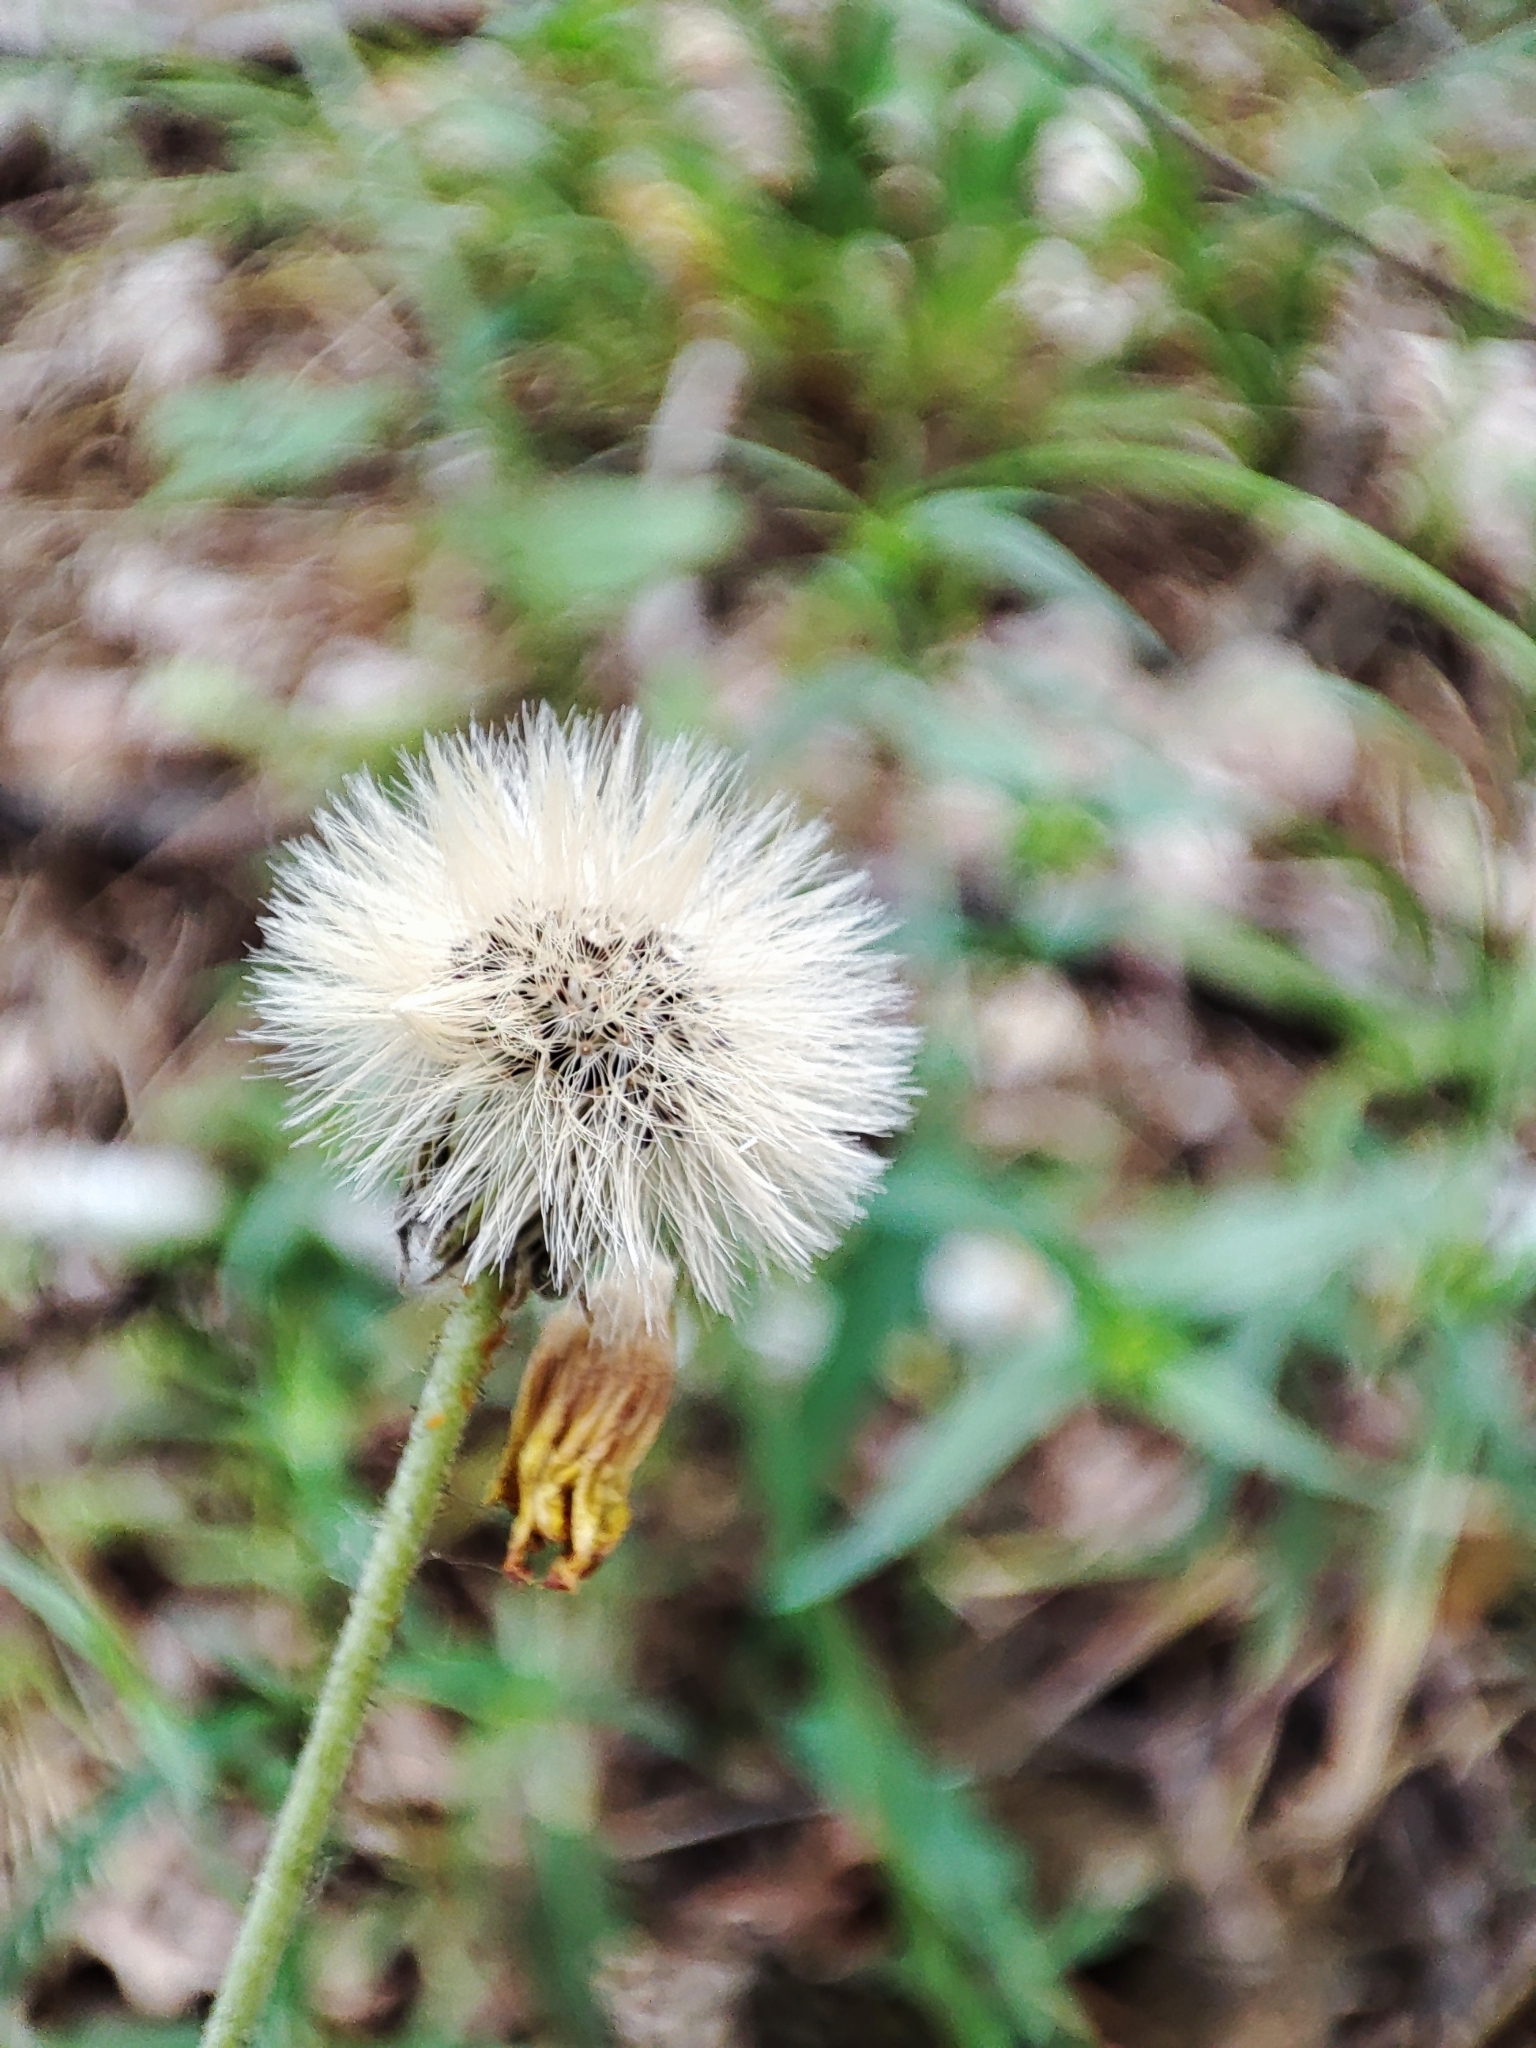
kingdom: Plantae
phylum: Tracheophyta
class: Magnoliopsida
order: Asterales
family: Asteraceae
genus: Pilosella
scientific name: Pilosella officinarum
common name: Mouse-ear hawkweed
